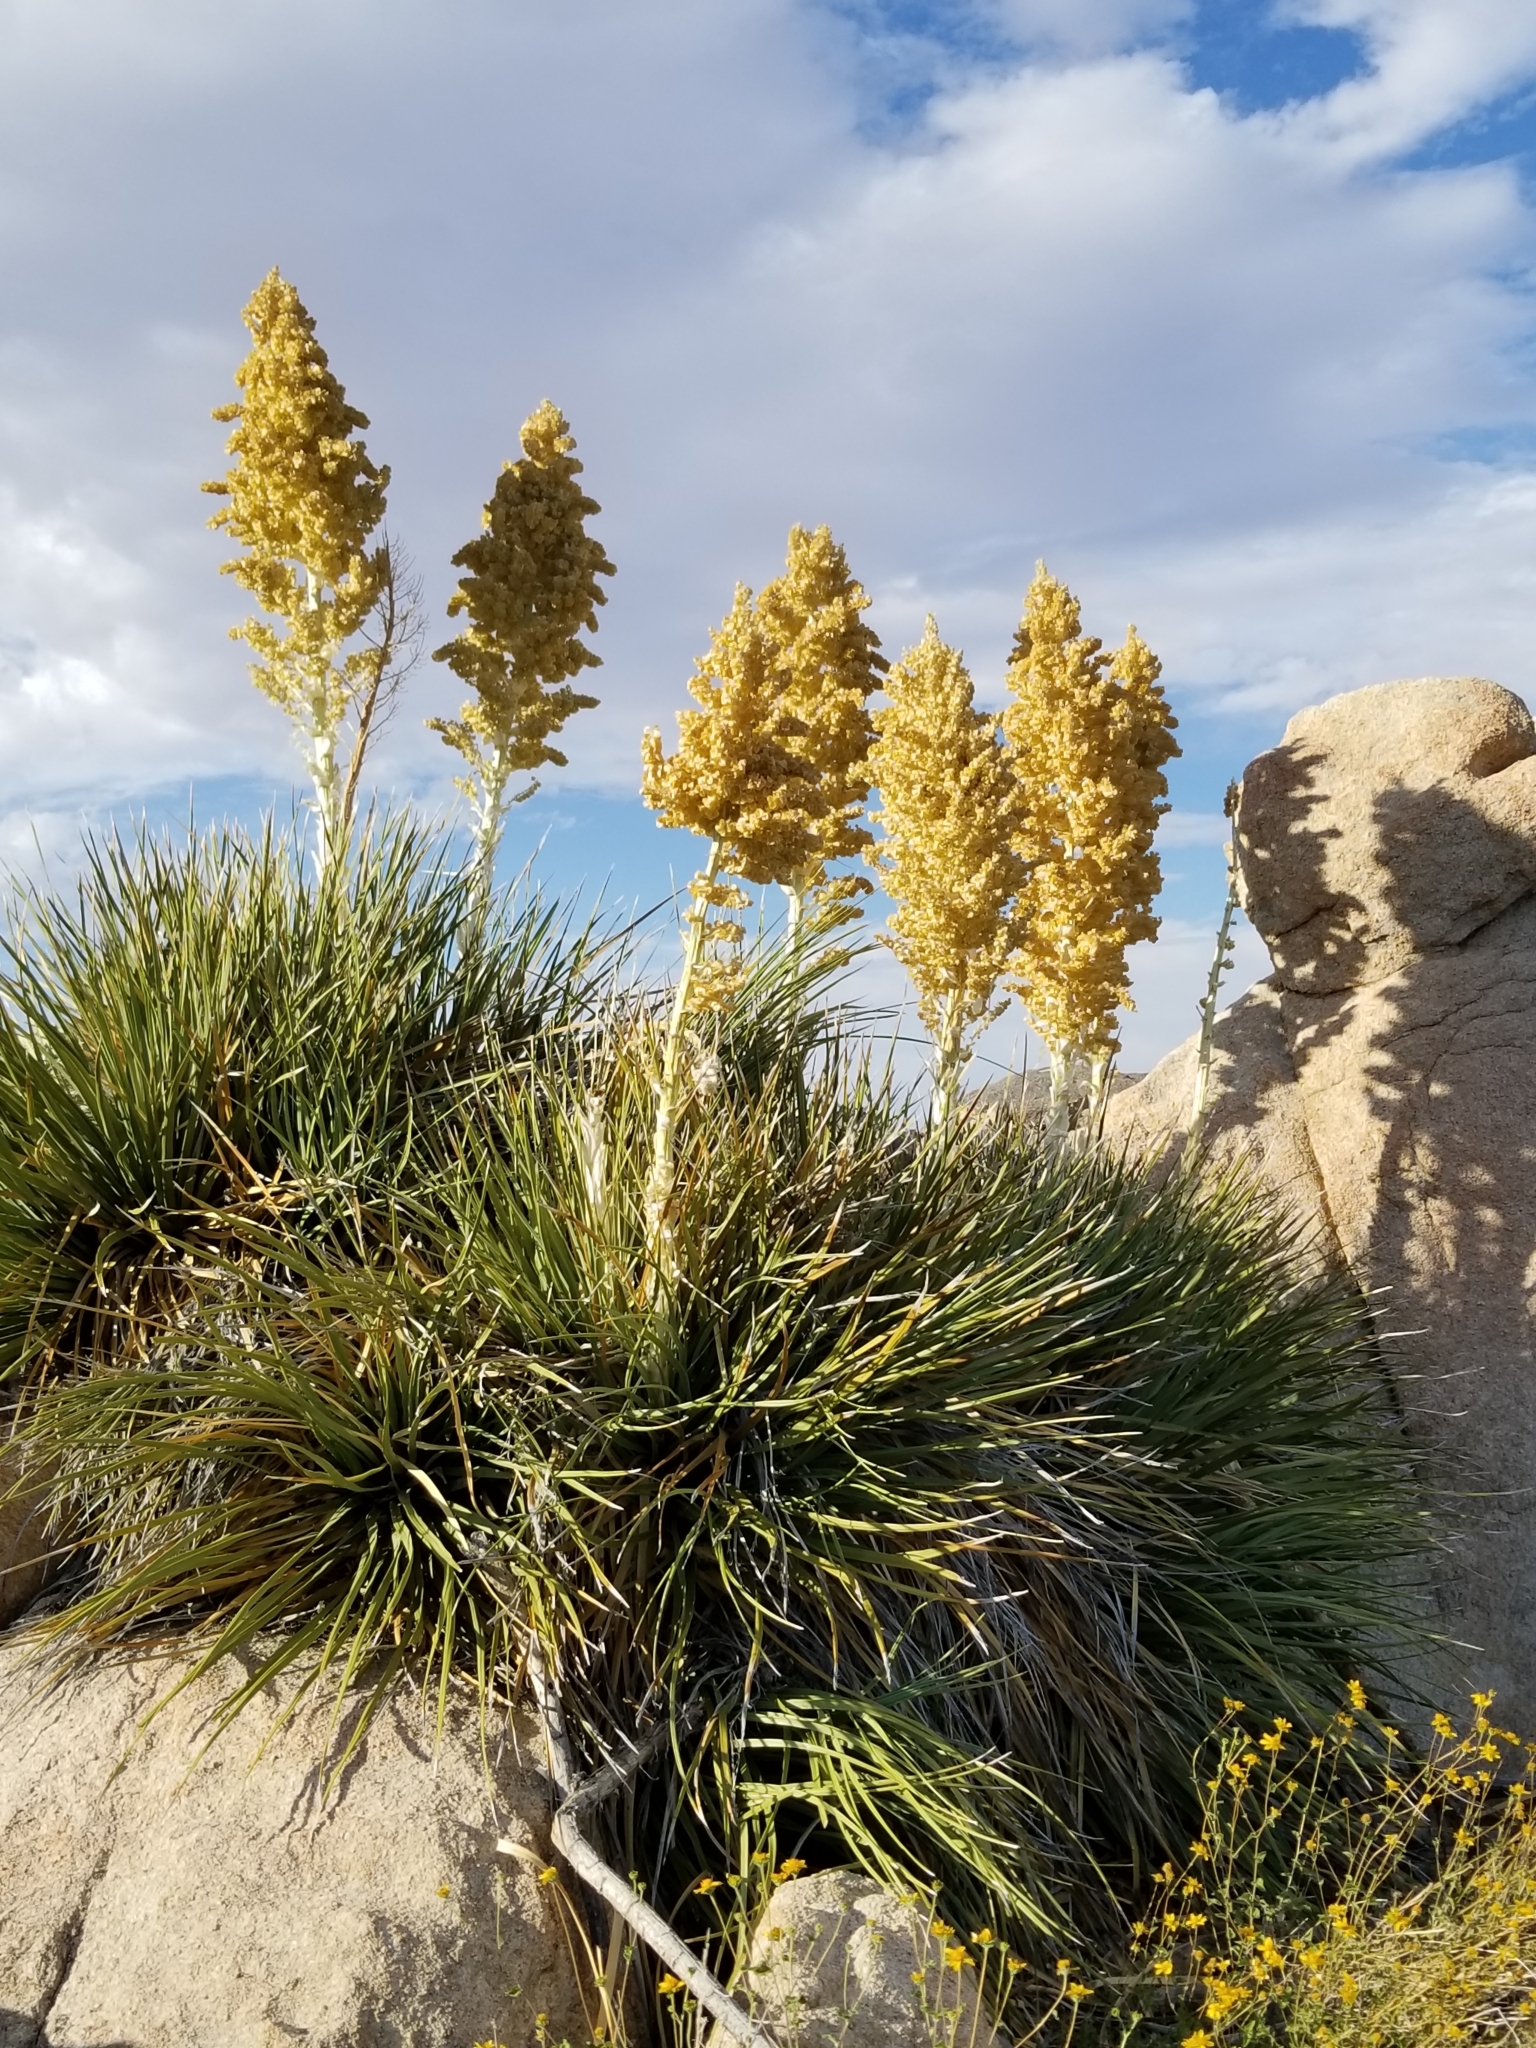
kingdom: Plantae
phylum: Tracheophyta
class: Liliopsida
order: Asparagales
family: Asparagaceae
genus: Nolina
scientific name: Nolina parryi
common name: Parry nolina
